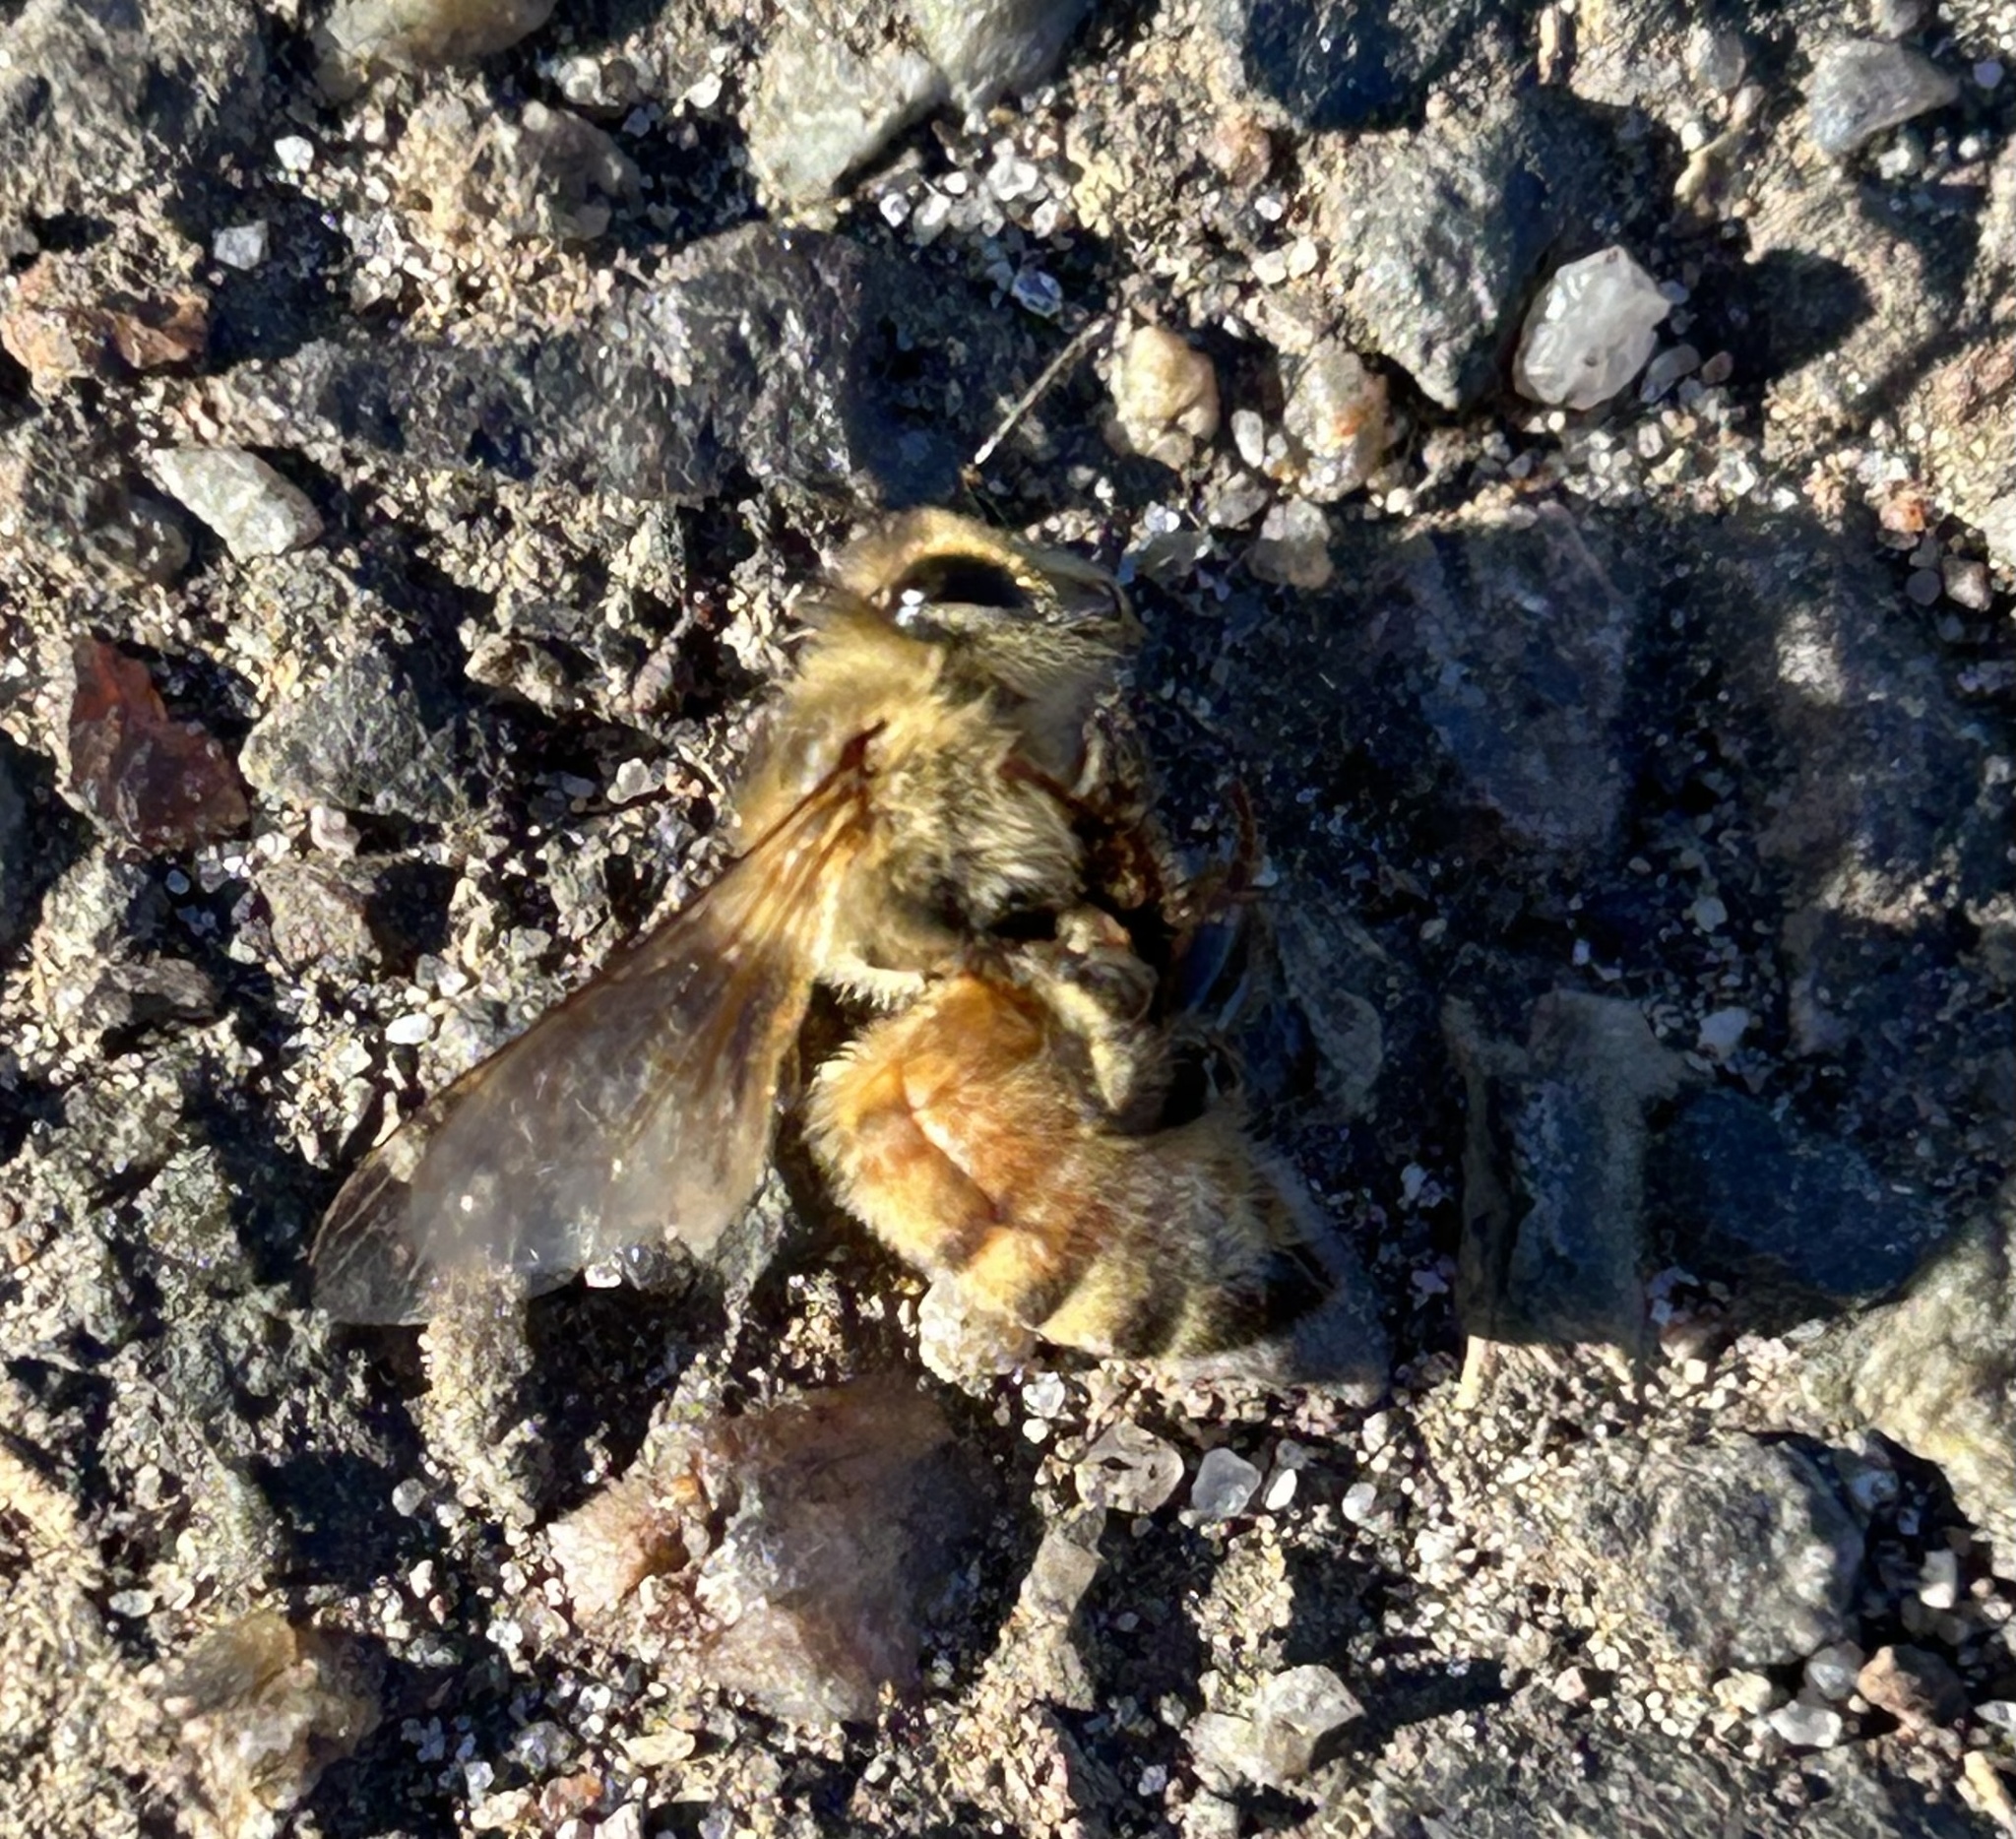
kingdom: Animalia
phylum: Arthropoda
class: Insecta
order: Hymenoptera
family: Apidae
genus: Apis
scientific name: Apis mellifera
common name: Honey bee
